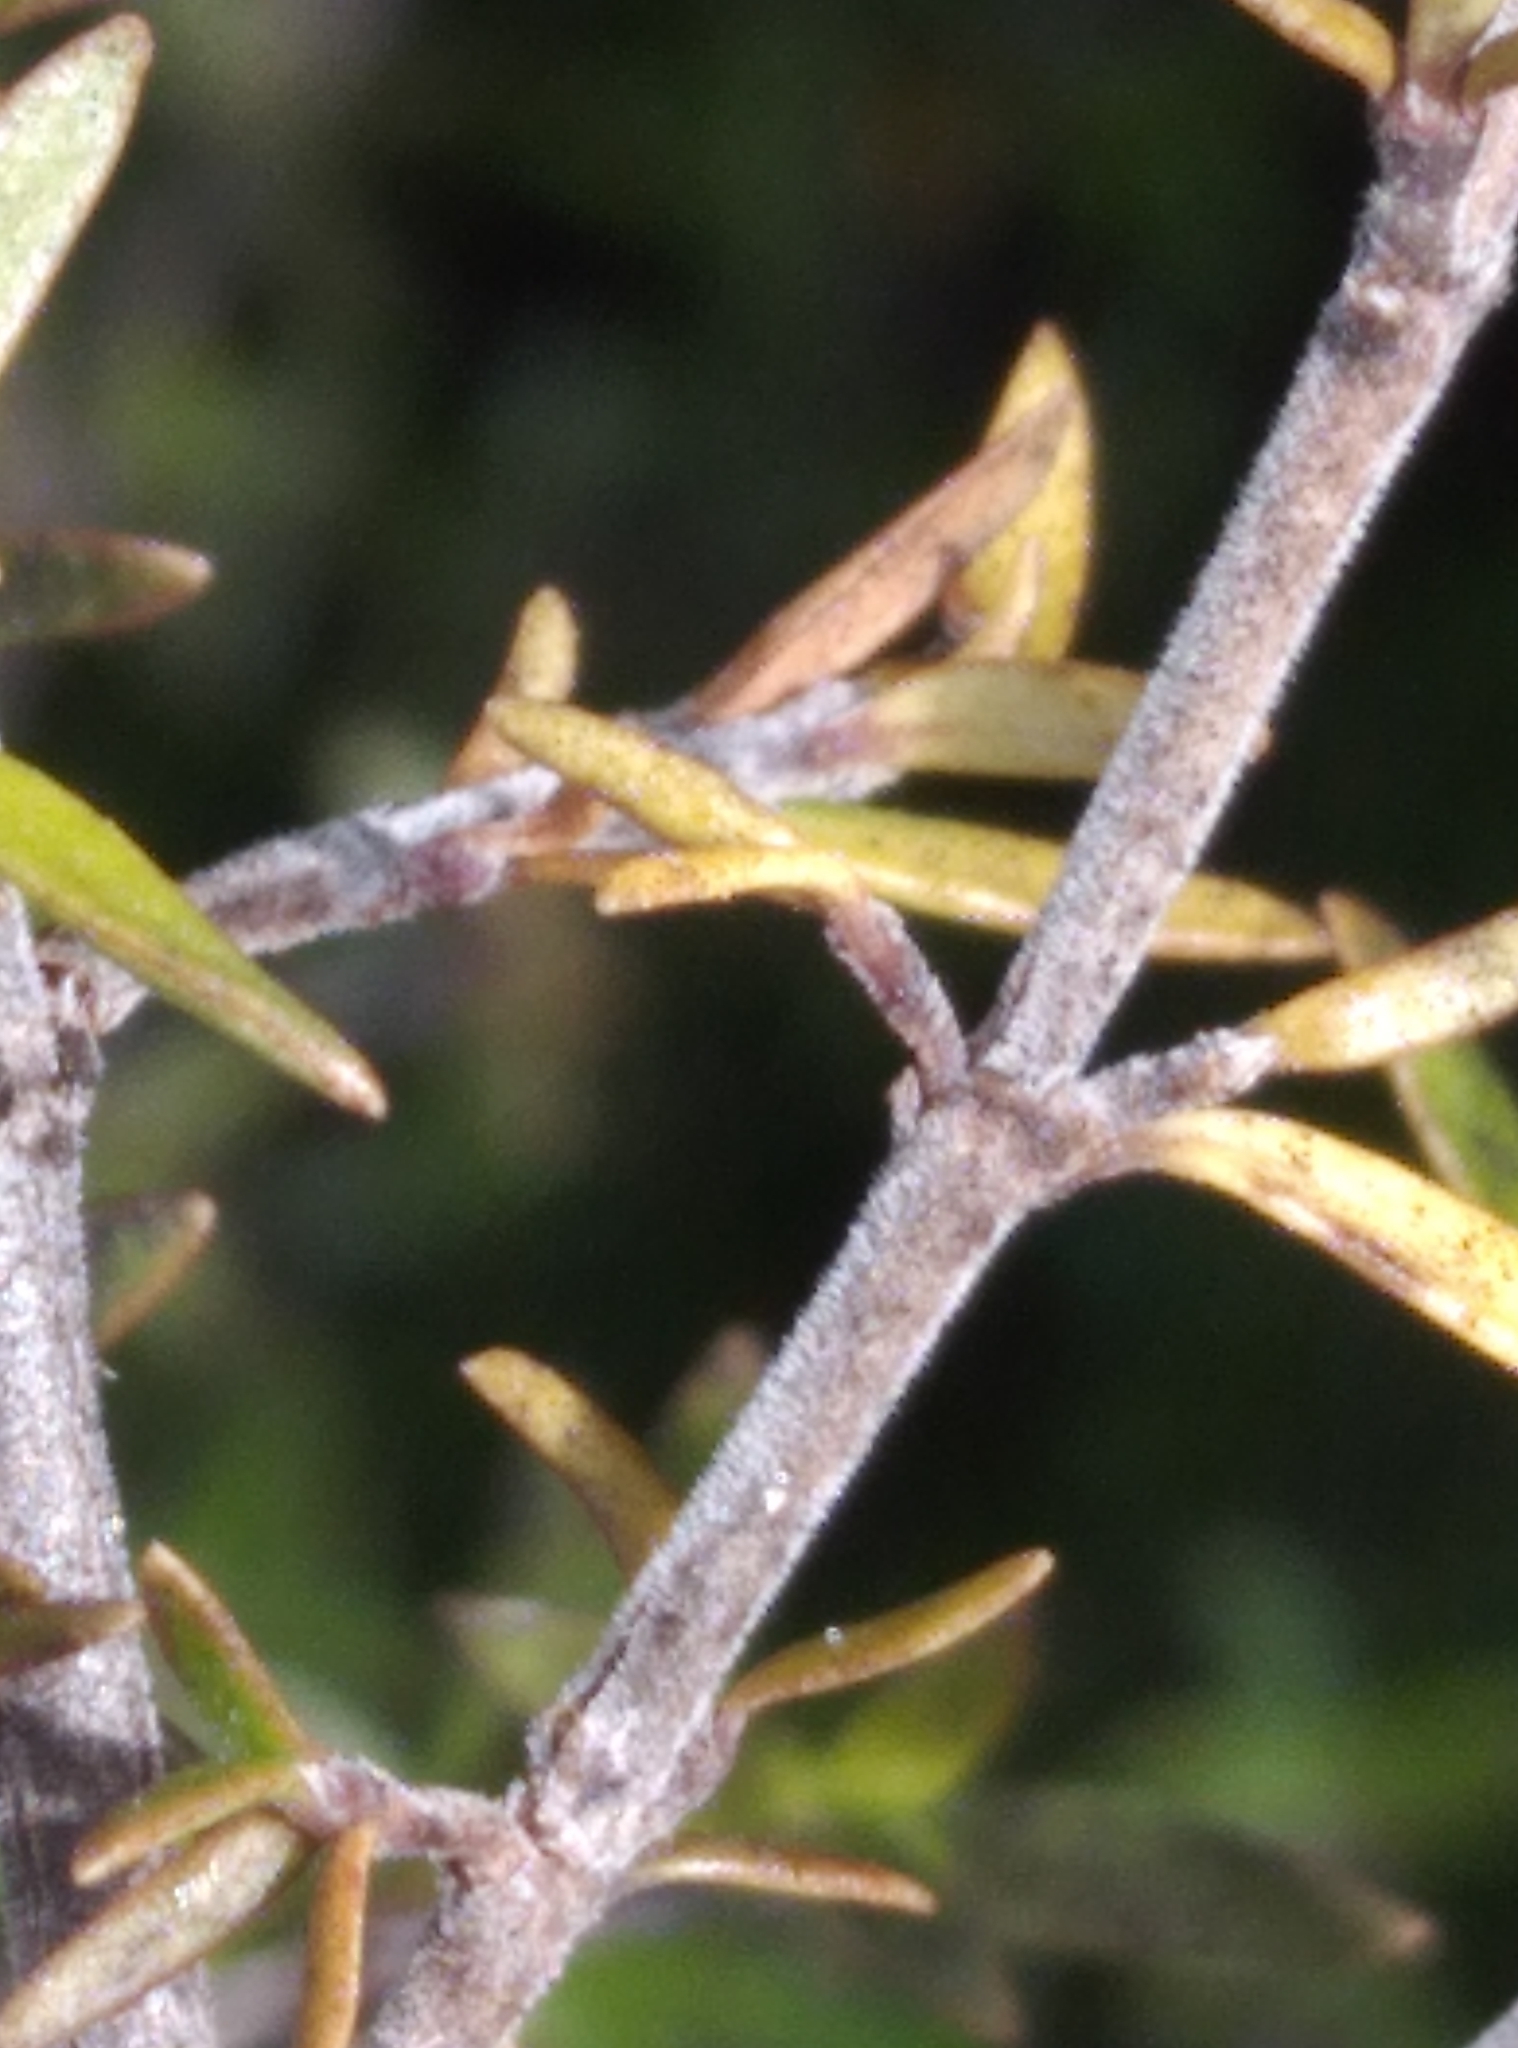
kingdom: Plantae
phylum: Tracheophyta
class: Magnoliopsida
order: Gentianales
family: Rubiaceae
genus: Coprosma
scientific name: Coprosma microcarpa
